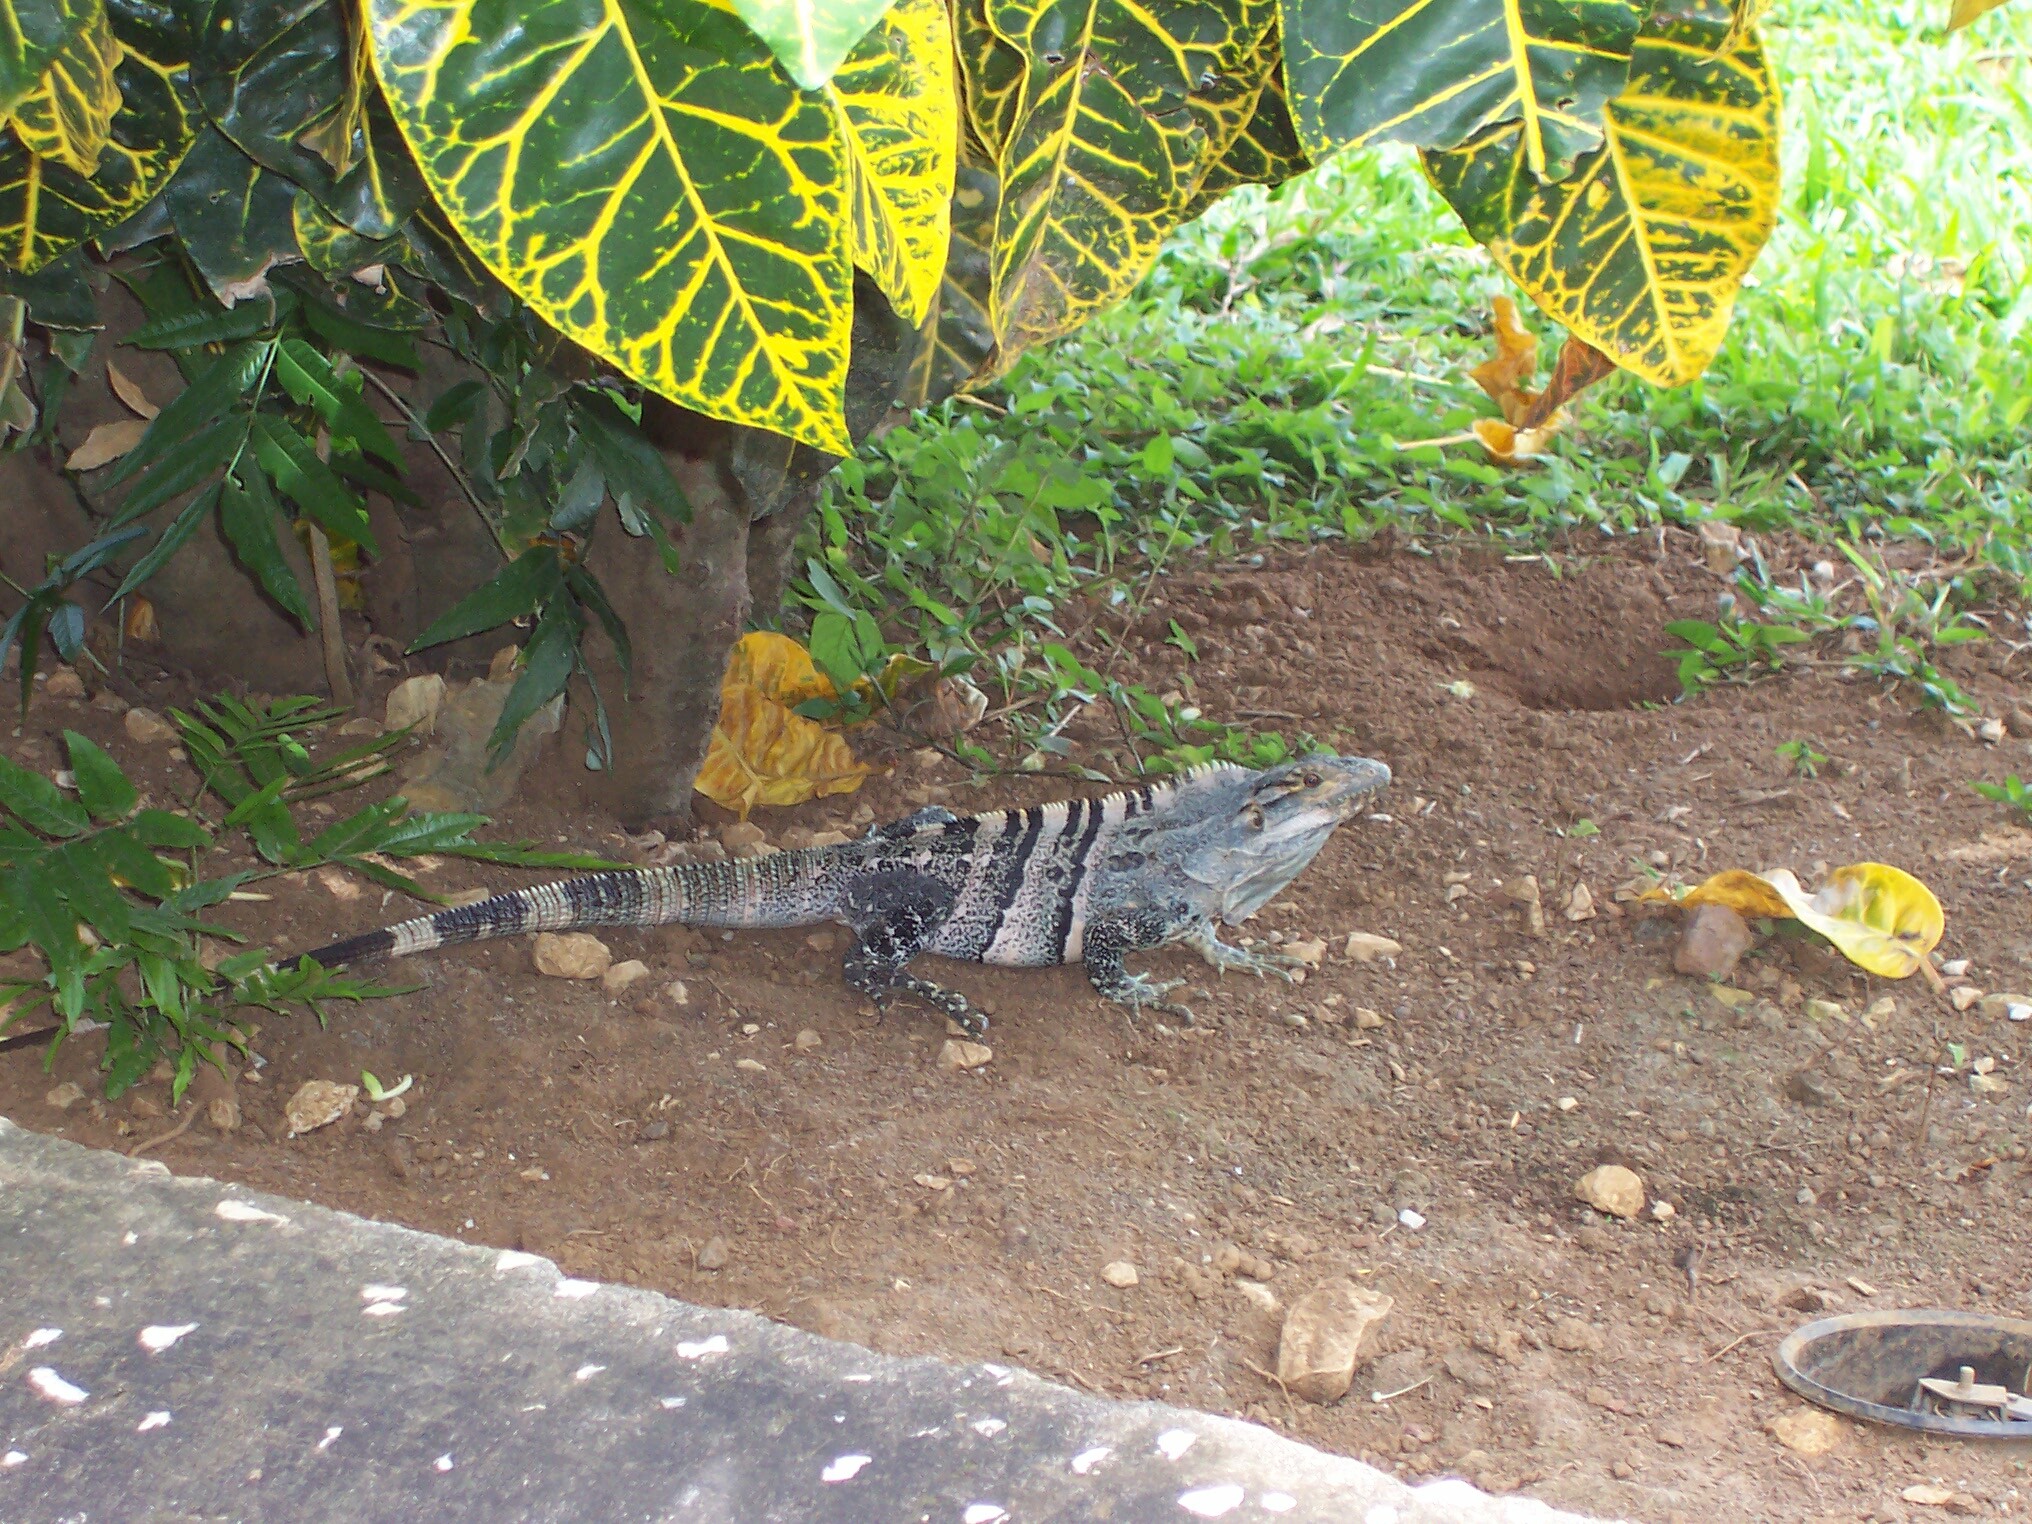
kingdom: Animalia
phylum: Chordata
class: Squamata
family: Iguanidae
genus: Ctenosaura
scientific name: Ctenosaura similis
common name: Black spiny-tailed iguana
